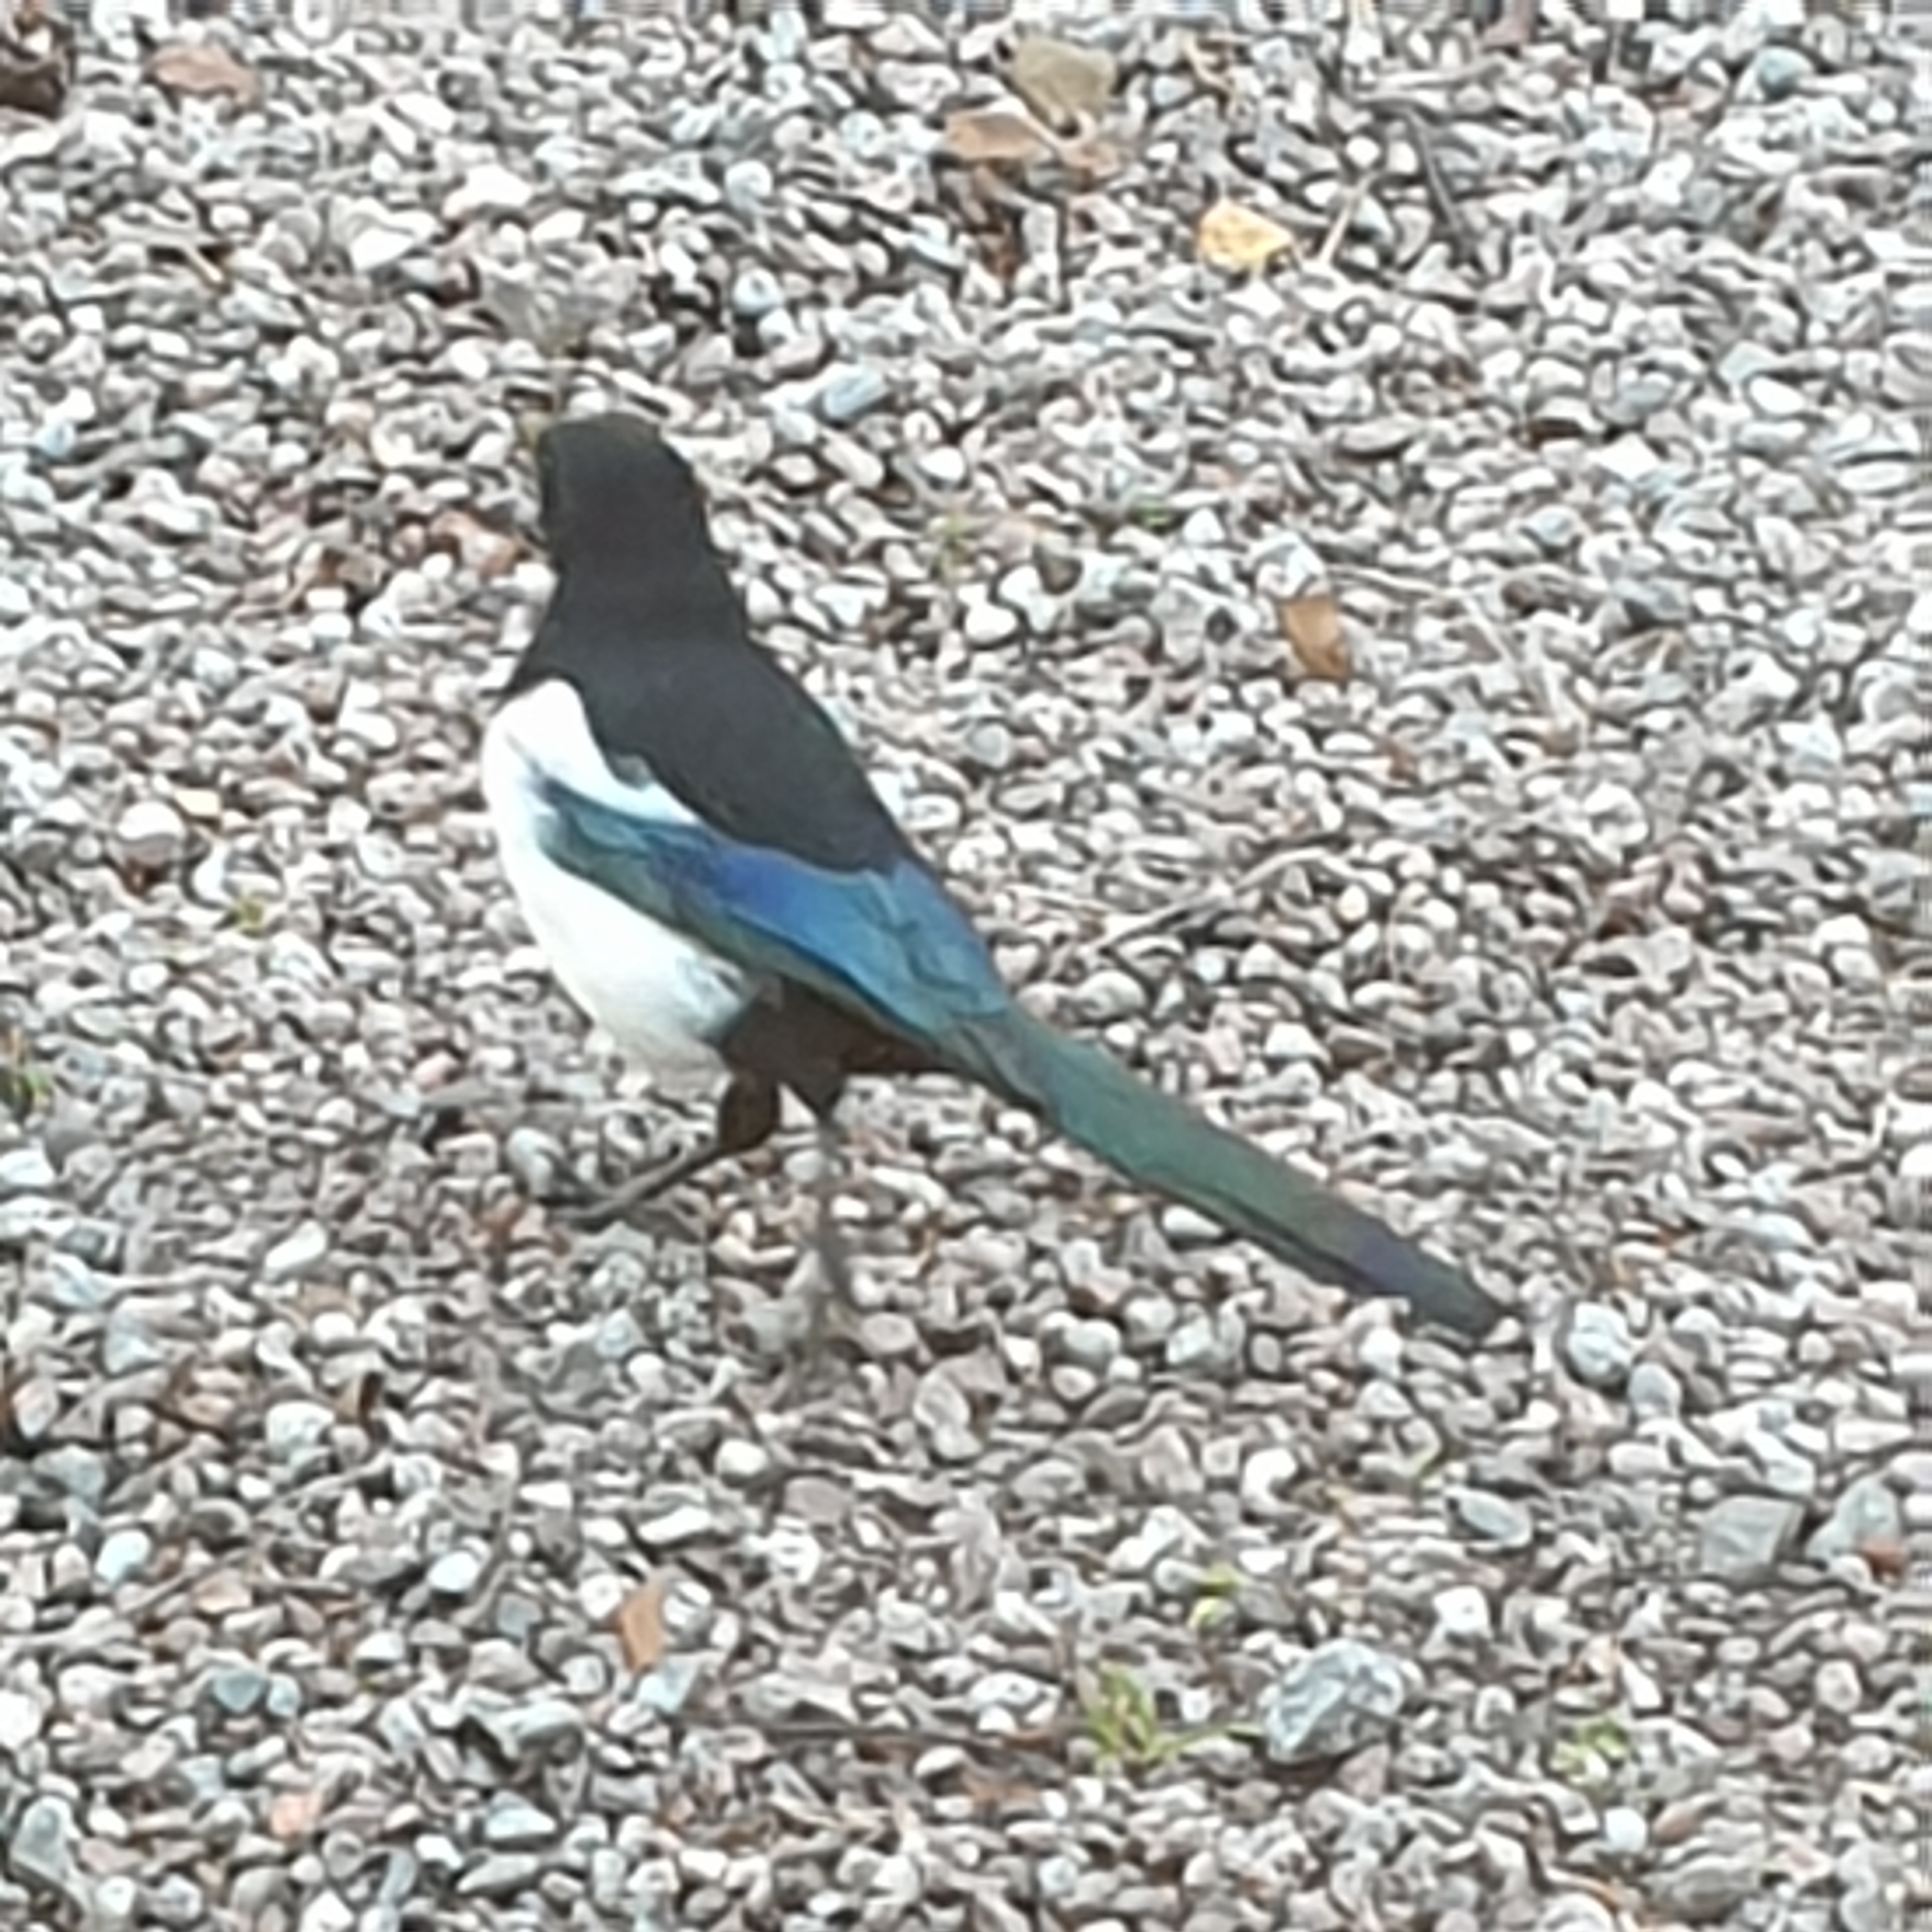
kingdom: Animalia
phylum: Chordata
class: Aves
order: Passeriformes
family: Corvidae
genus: Pica
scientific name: Pica pica
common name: Eurasian magpie
